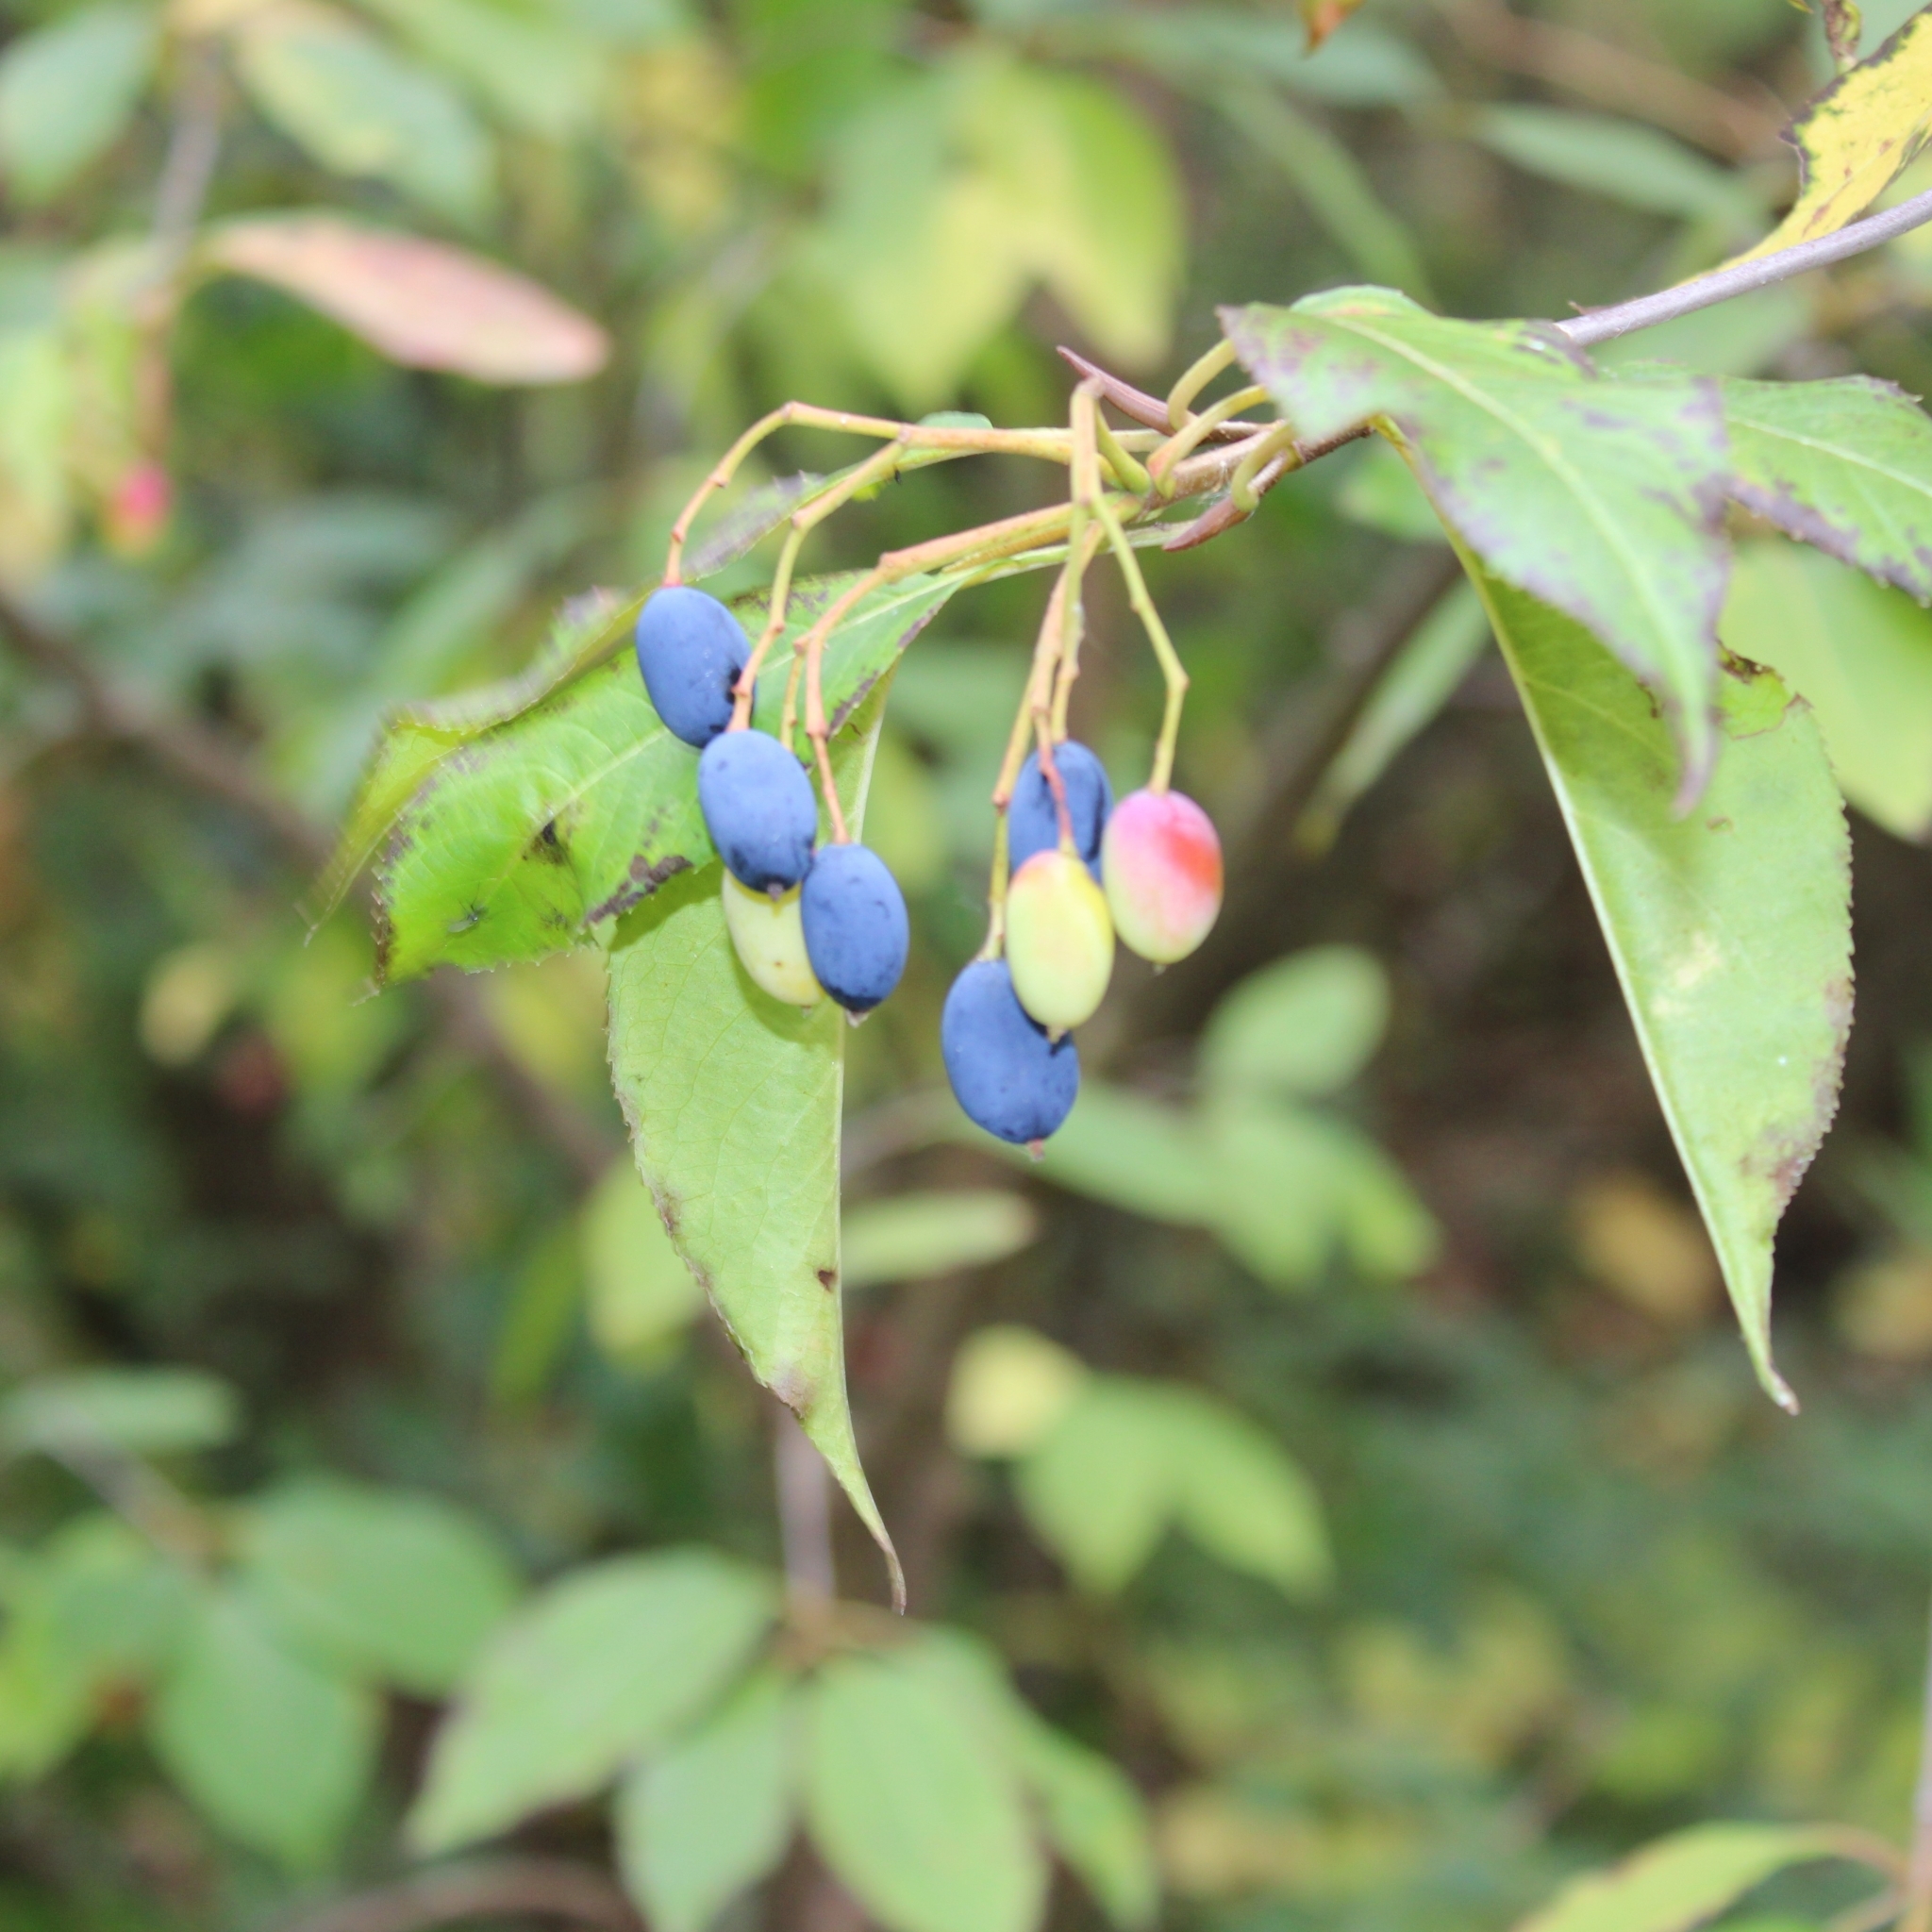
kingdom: Plantae
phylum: Tracheophyta
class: Magnoliopsida
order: Dipsacales
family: Viburnaceae
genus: Viburnum
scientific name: Viburnum lentago
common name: Black haw
